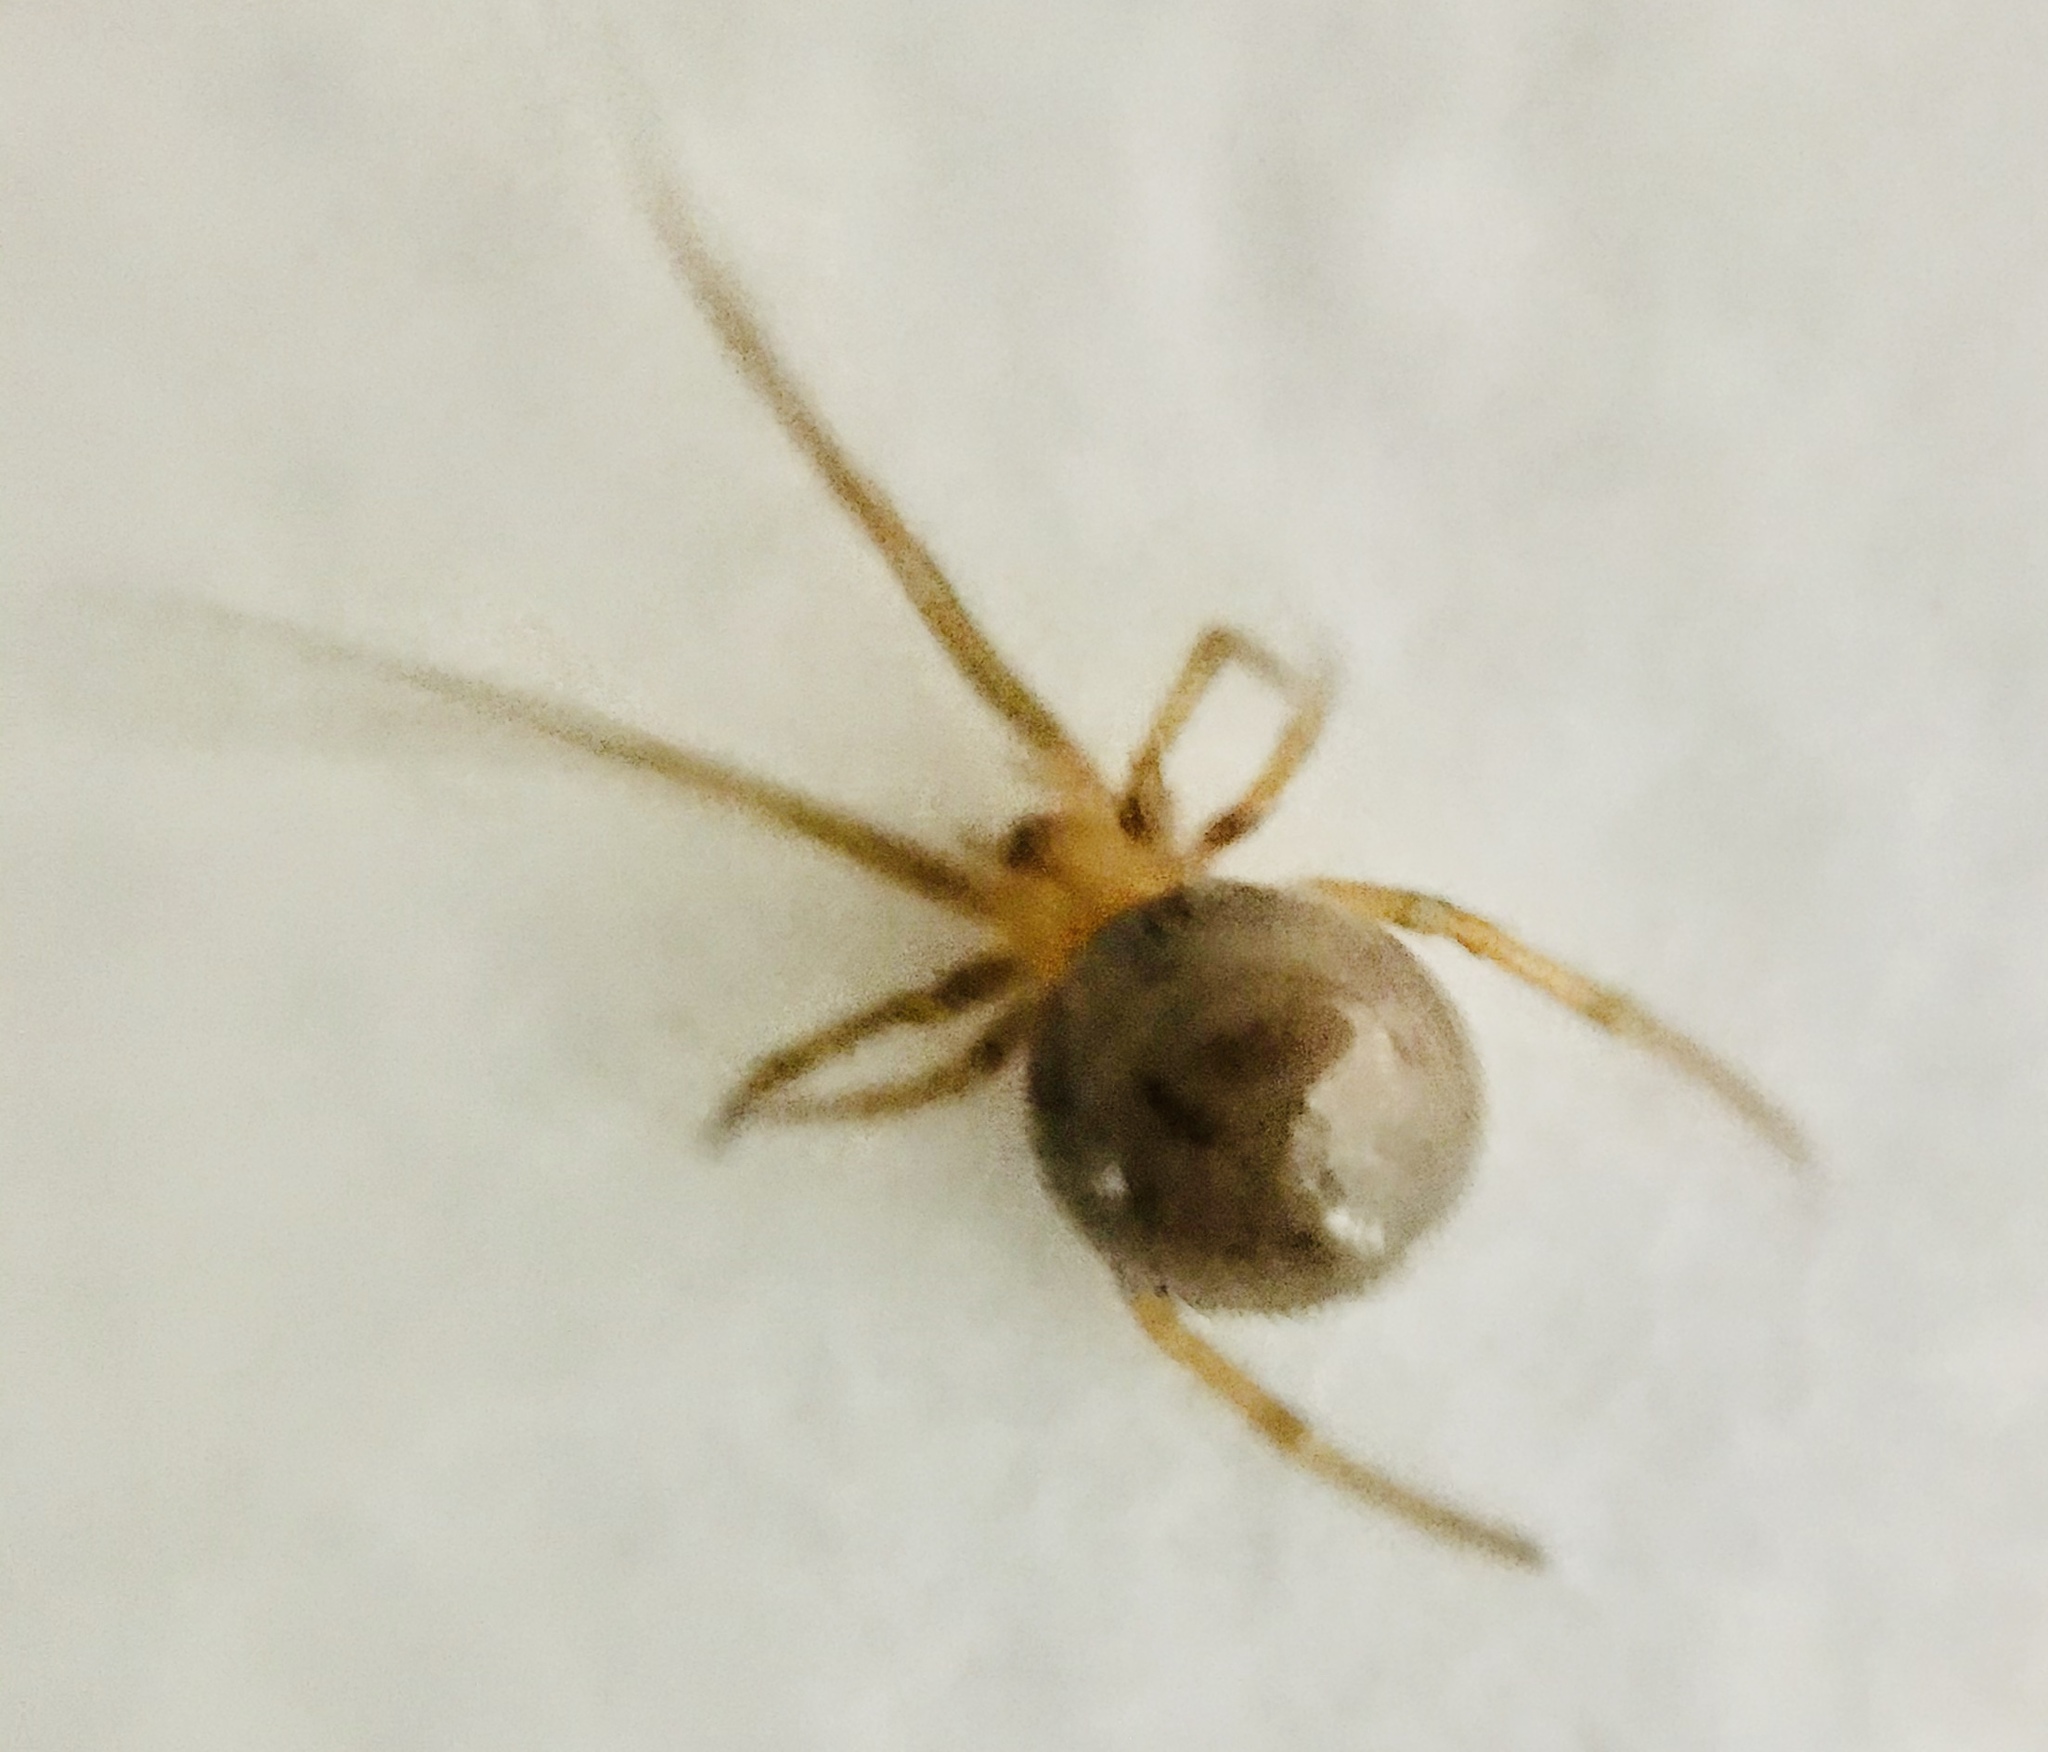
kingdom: Animalia
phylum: Arthropoda
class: Arachnida
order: Araneae
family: Theridiidae
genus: Nesticodes
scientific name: Nesticodes rufipes
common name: Cobweb spiders
